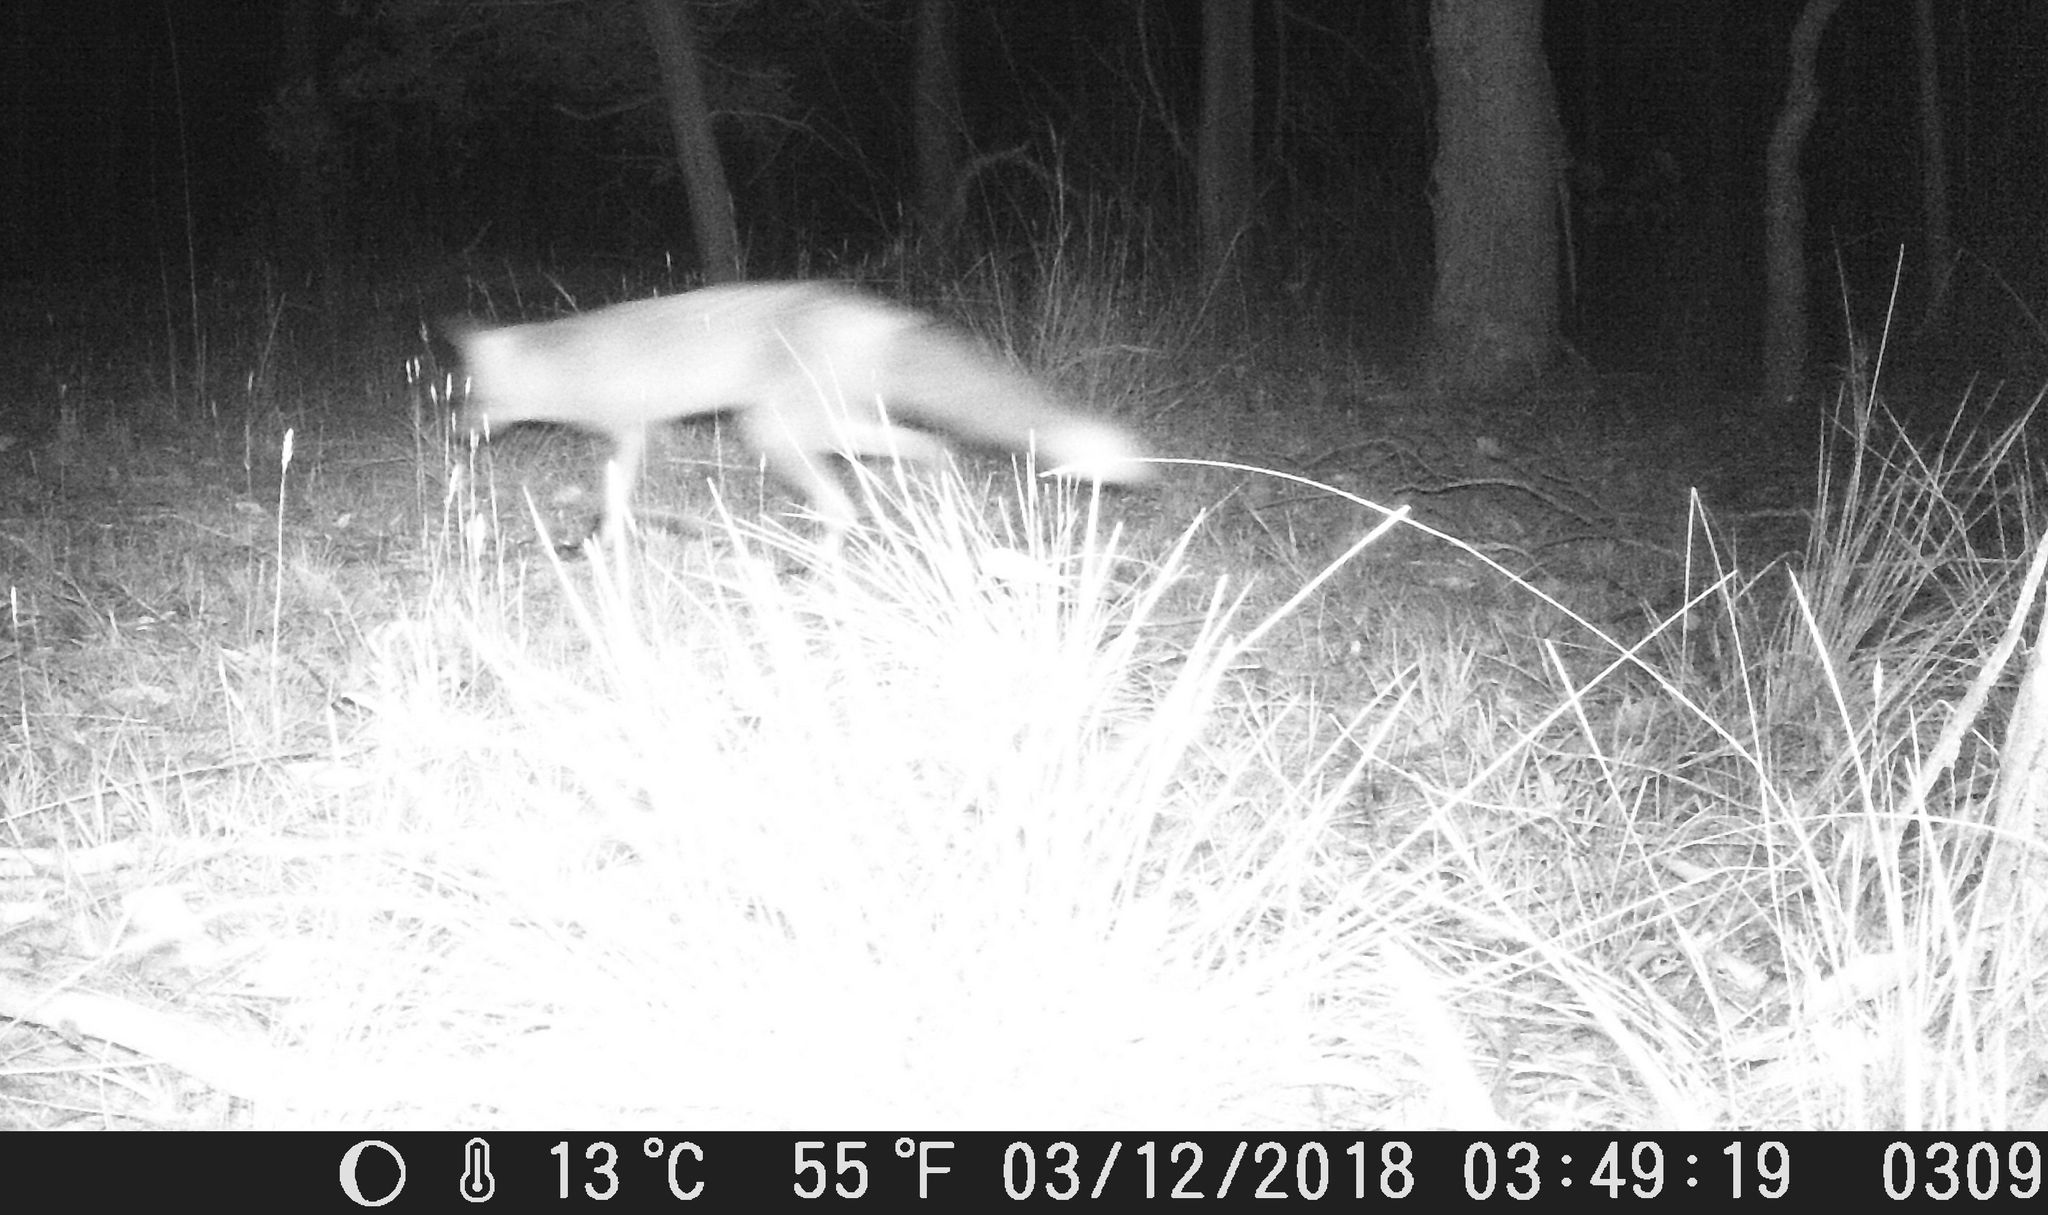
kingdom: Animalia
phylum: Chordata
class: Mammalia
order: Carnivora
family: Canidae
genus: Vulpes
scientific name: Vulpes vulpes
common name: Red fox
